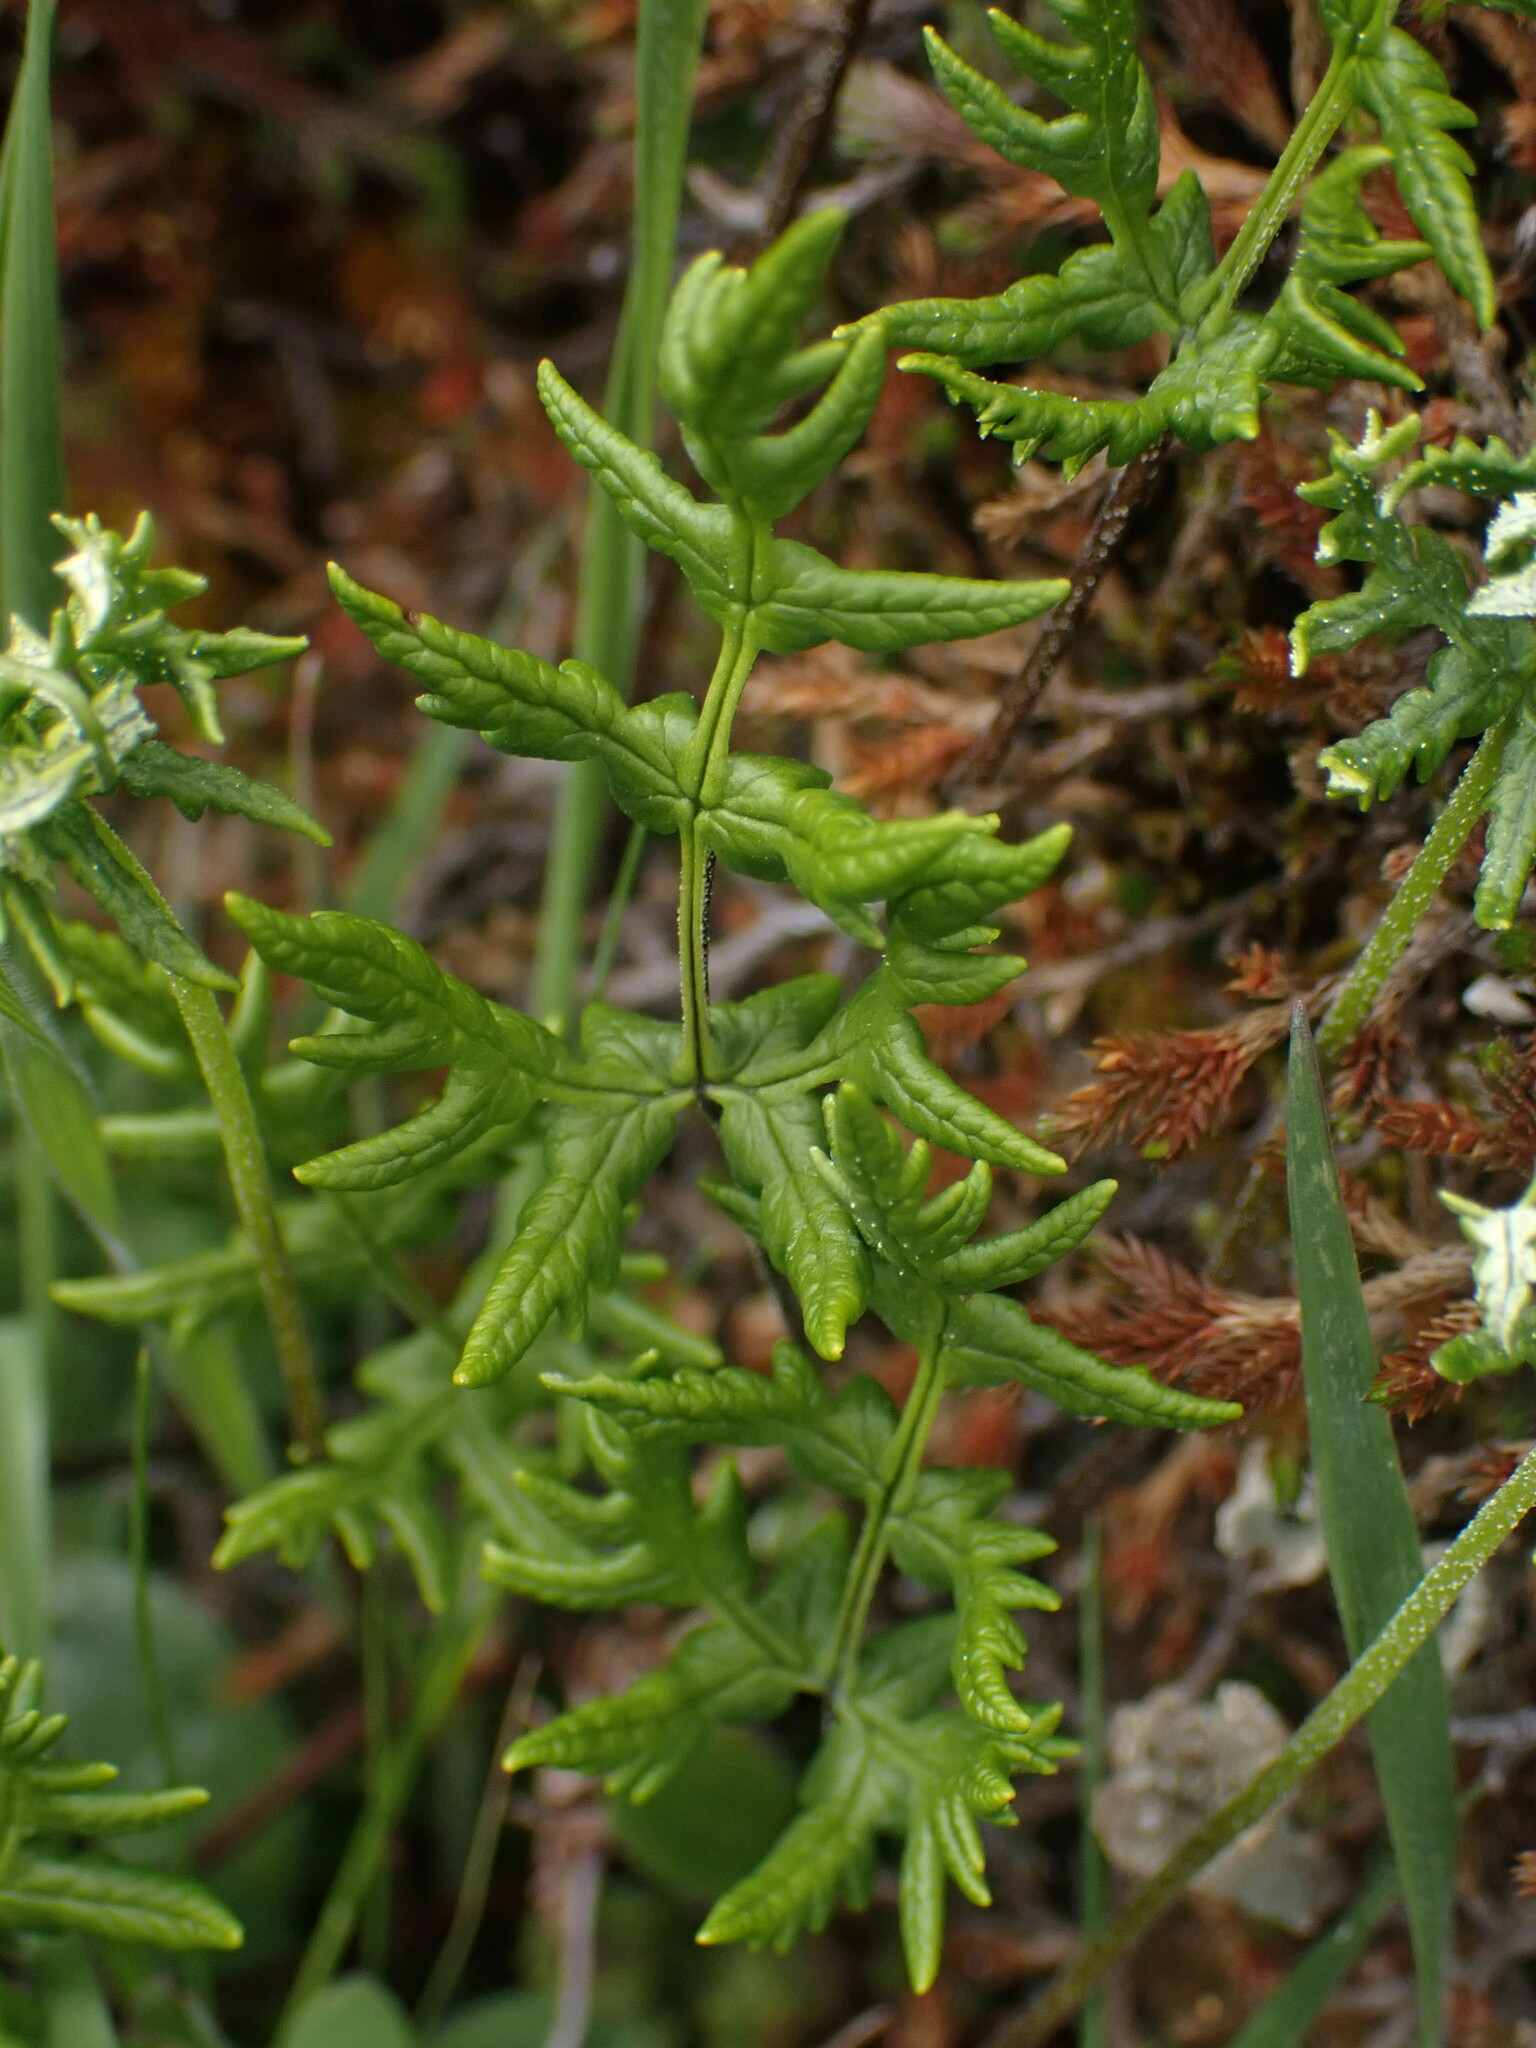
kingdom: Plantae
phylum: Tracheophyta
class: Polypodiopsida
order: Polypodiales
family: Pteridaceae
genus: Pentagramma
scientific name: Pentagramma triangularis
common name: Gold fern
